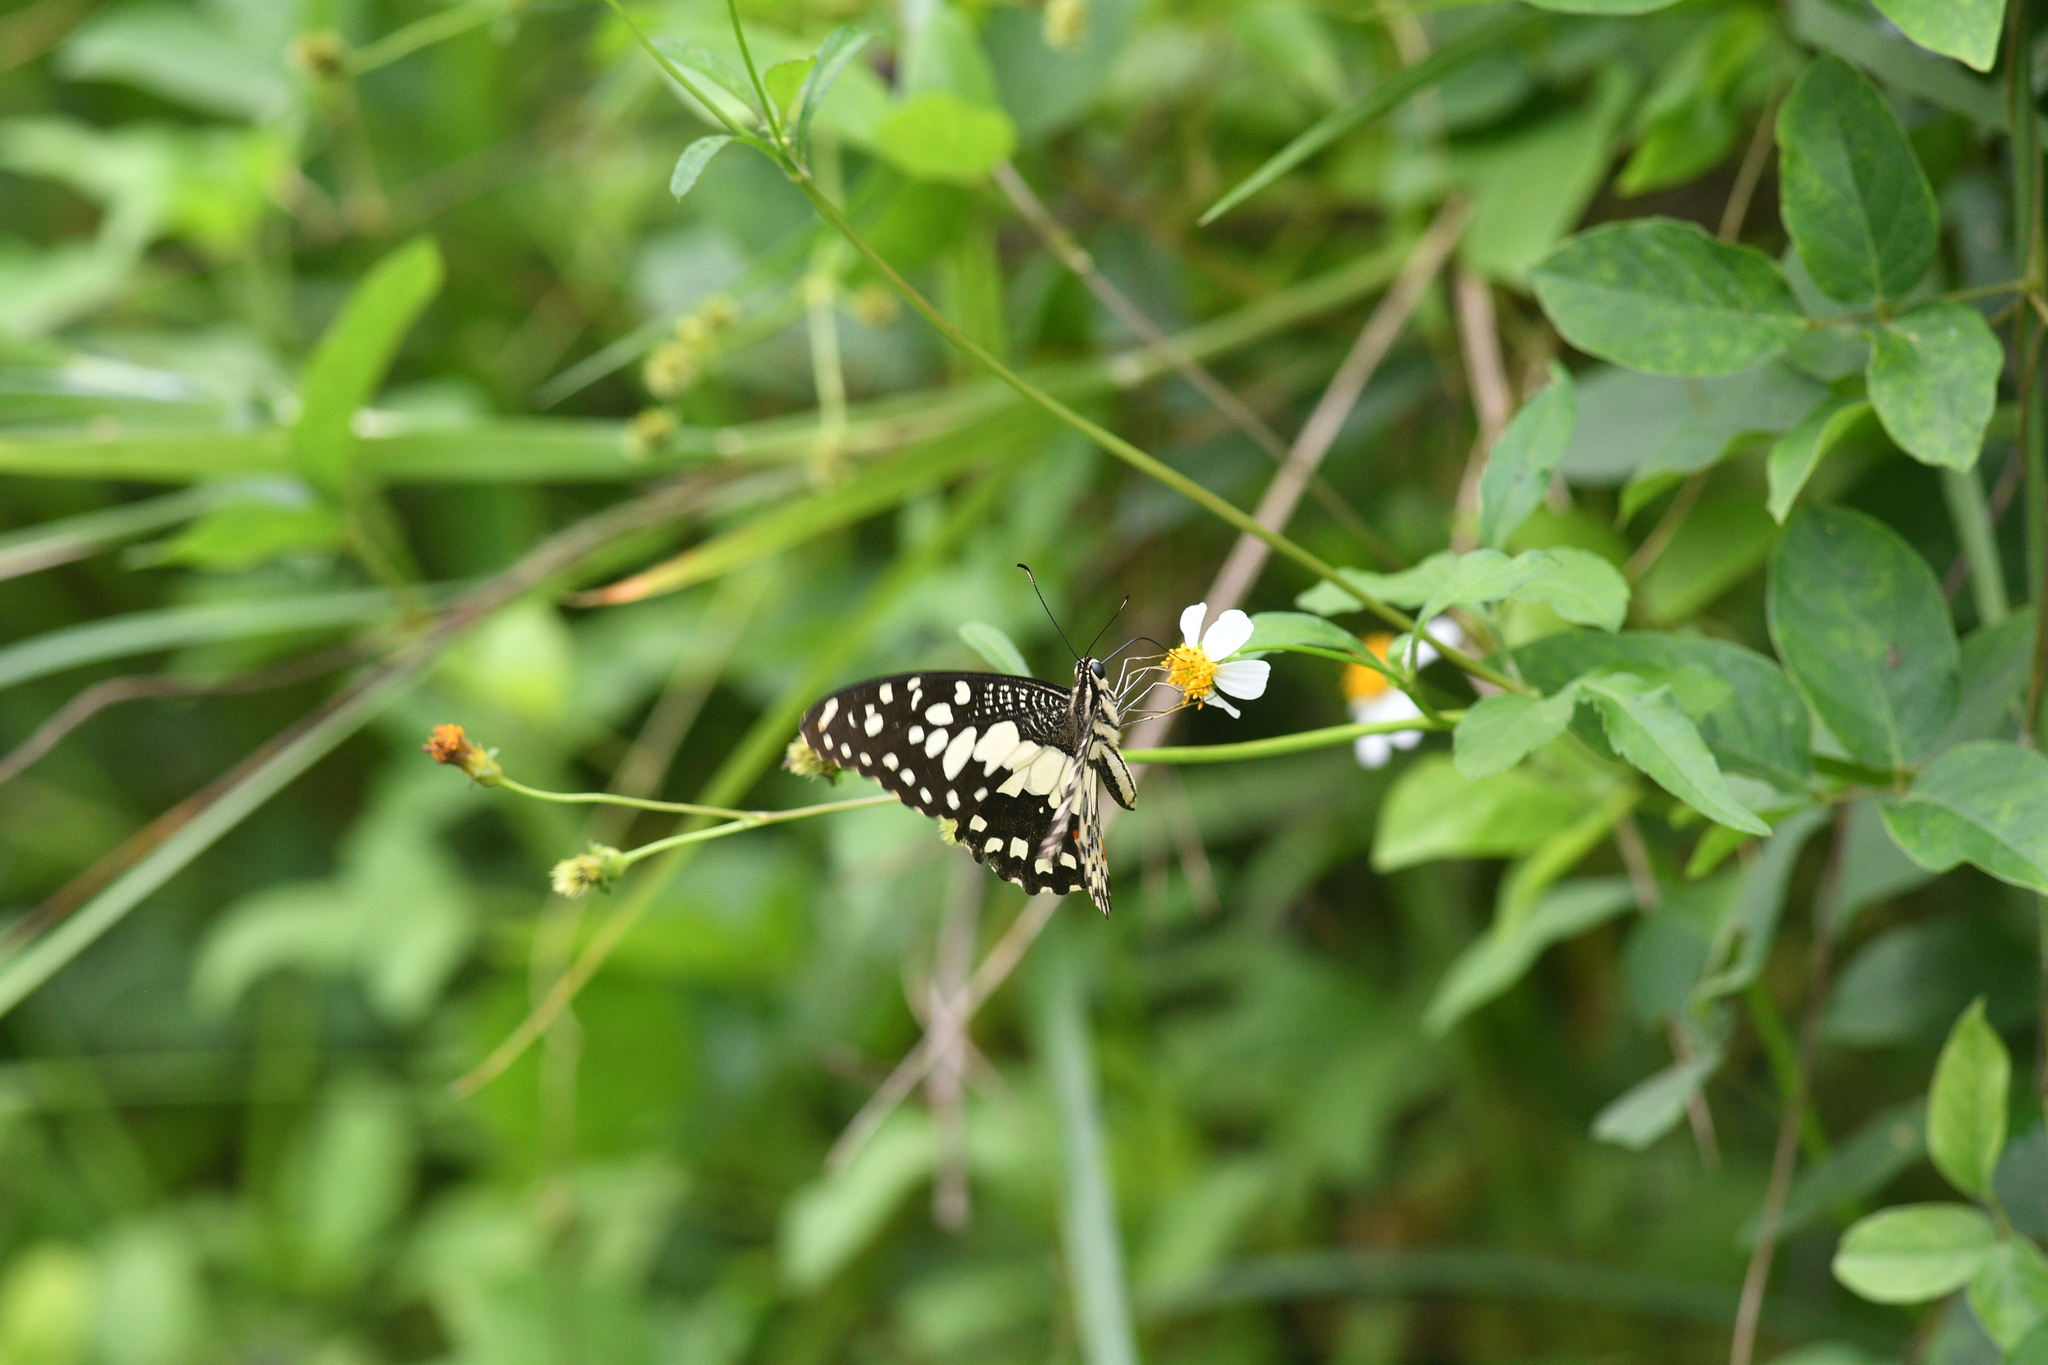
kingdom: Animalia
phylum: Arthropoda
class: Insecta
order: Lepidoptera
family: Papilionidae
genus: Papilio
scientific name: Papilio demoleus
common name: Lime butterfly
